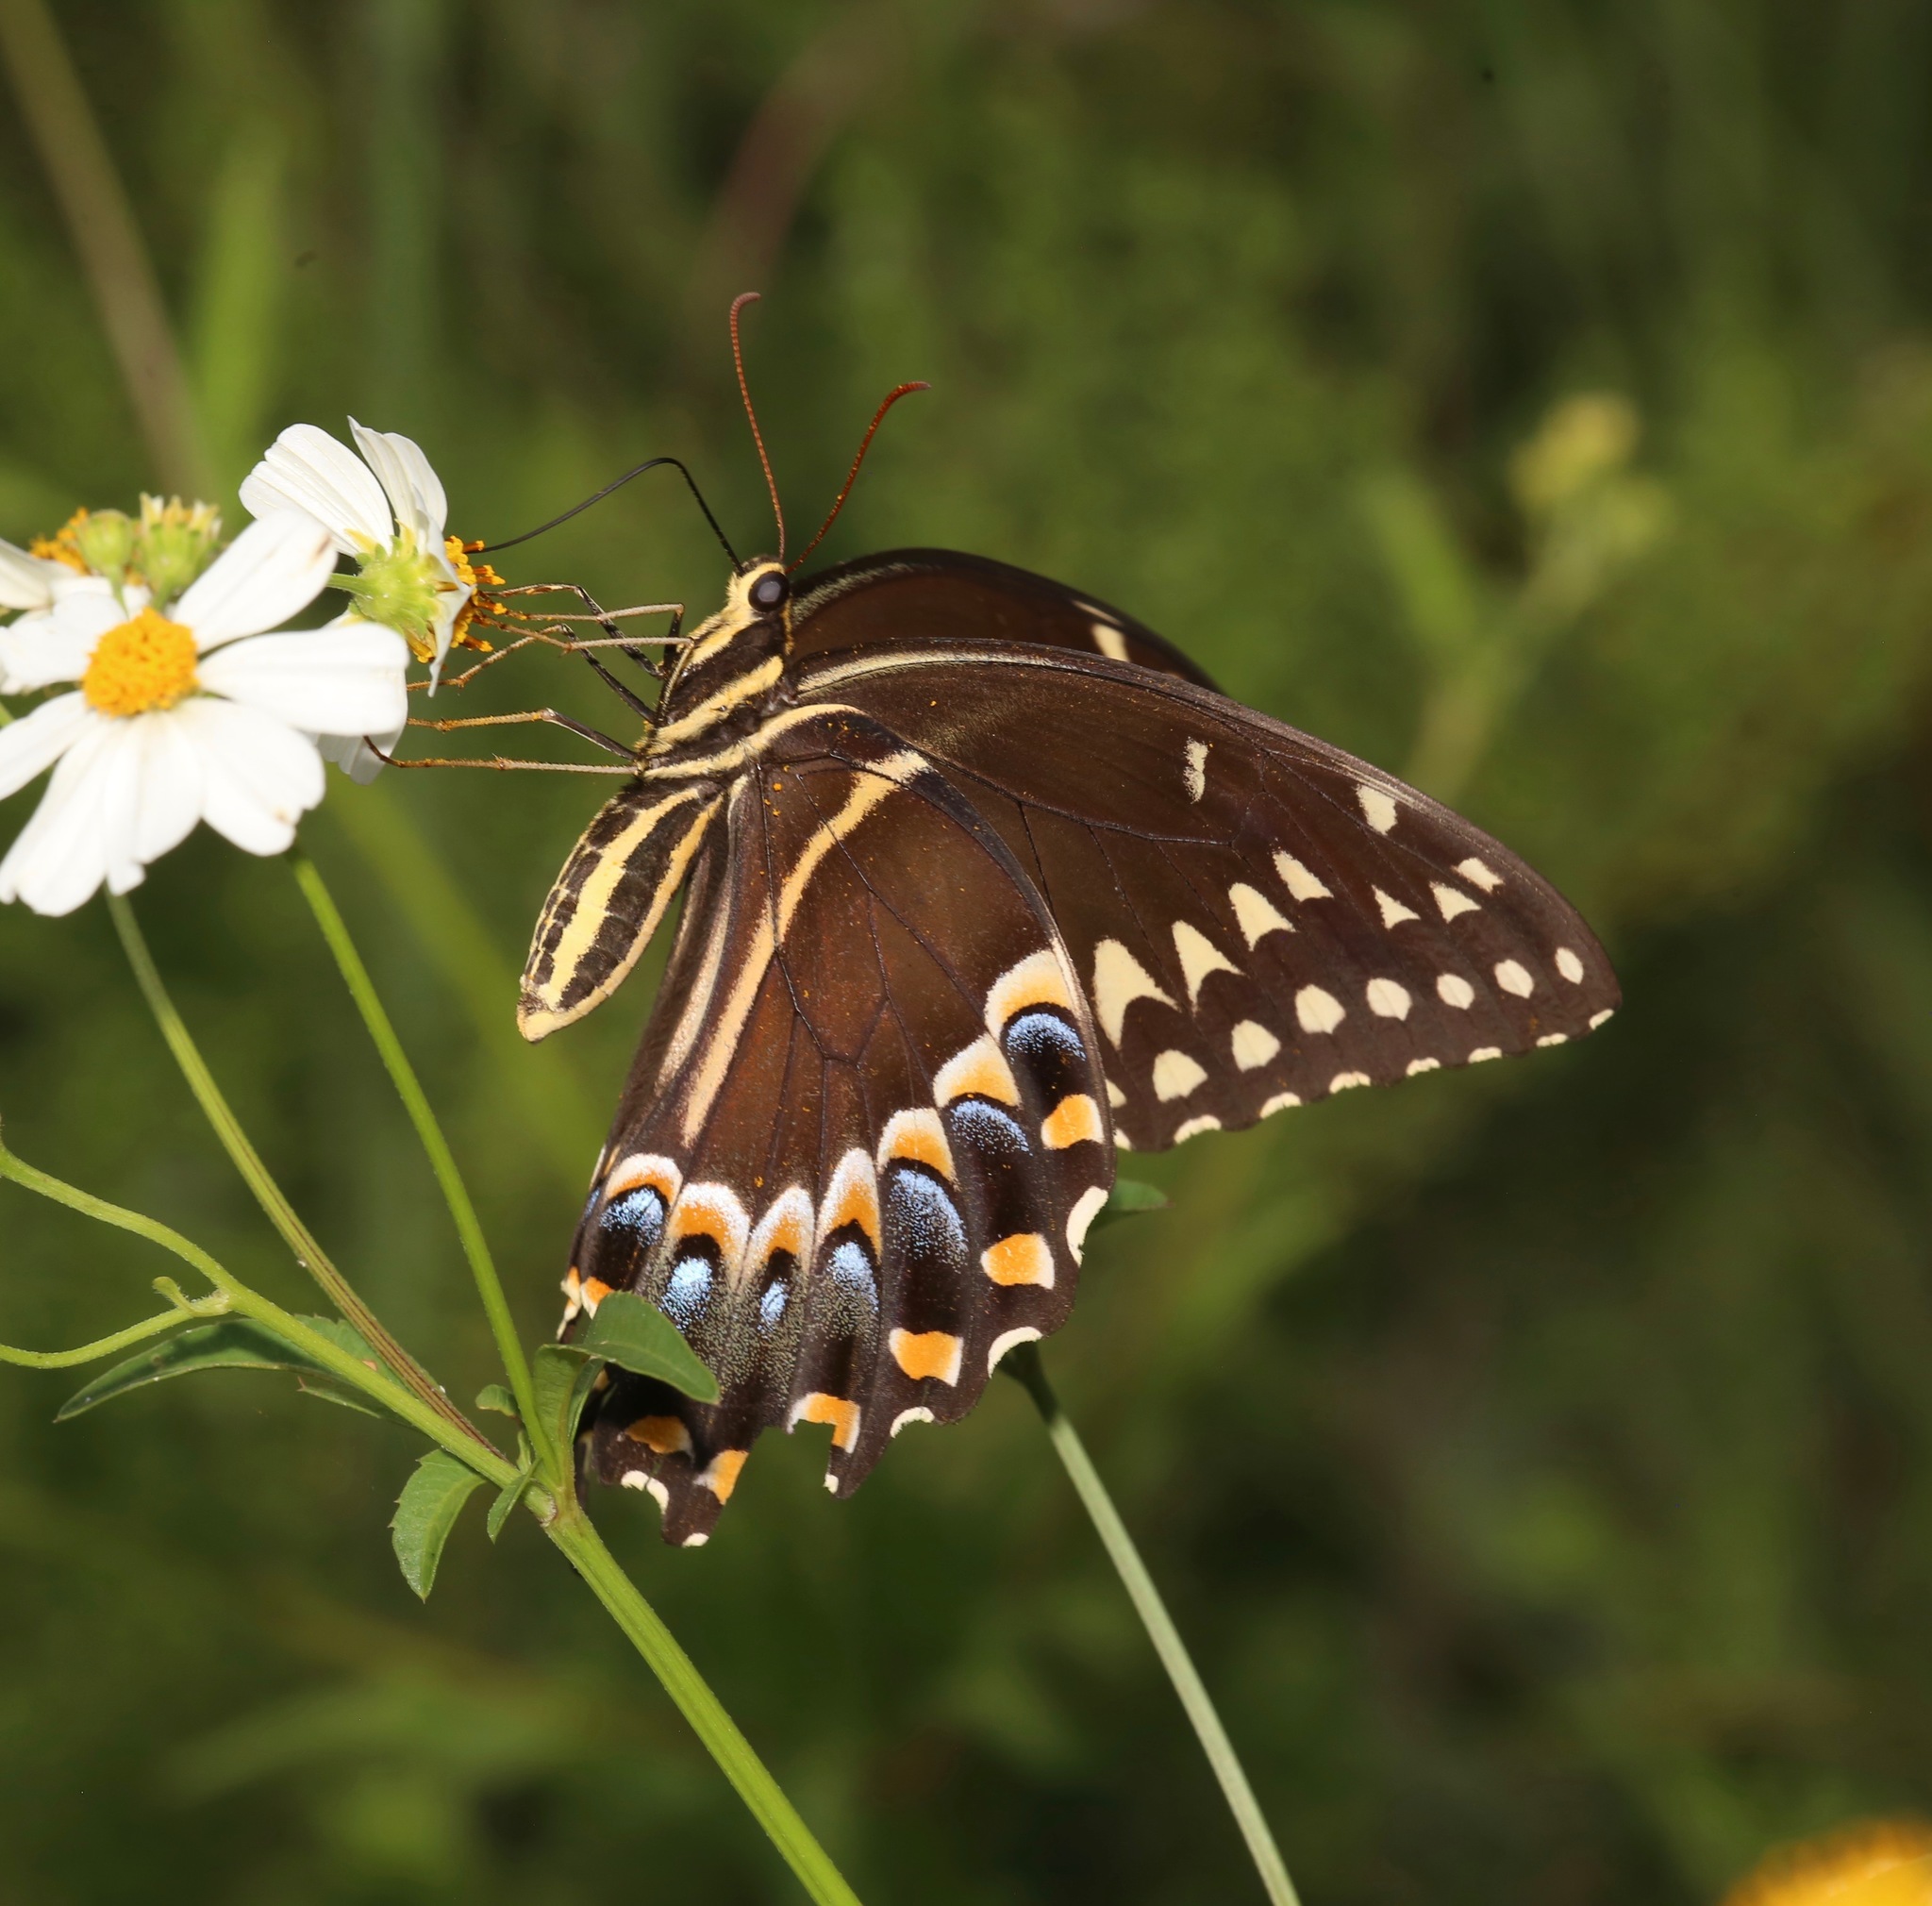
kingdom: Animalia
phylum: Arthropoda
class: Insecta
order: Lepidoptera
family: Papilionidae
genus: Papilio
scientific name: Papilio palamedes
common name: Palamedes swallowtail
